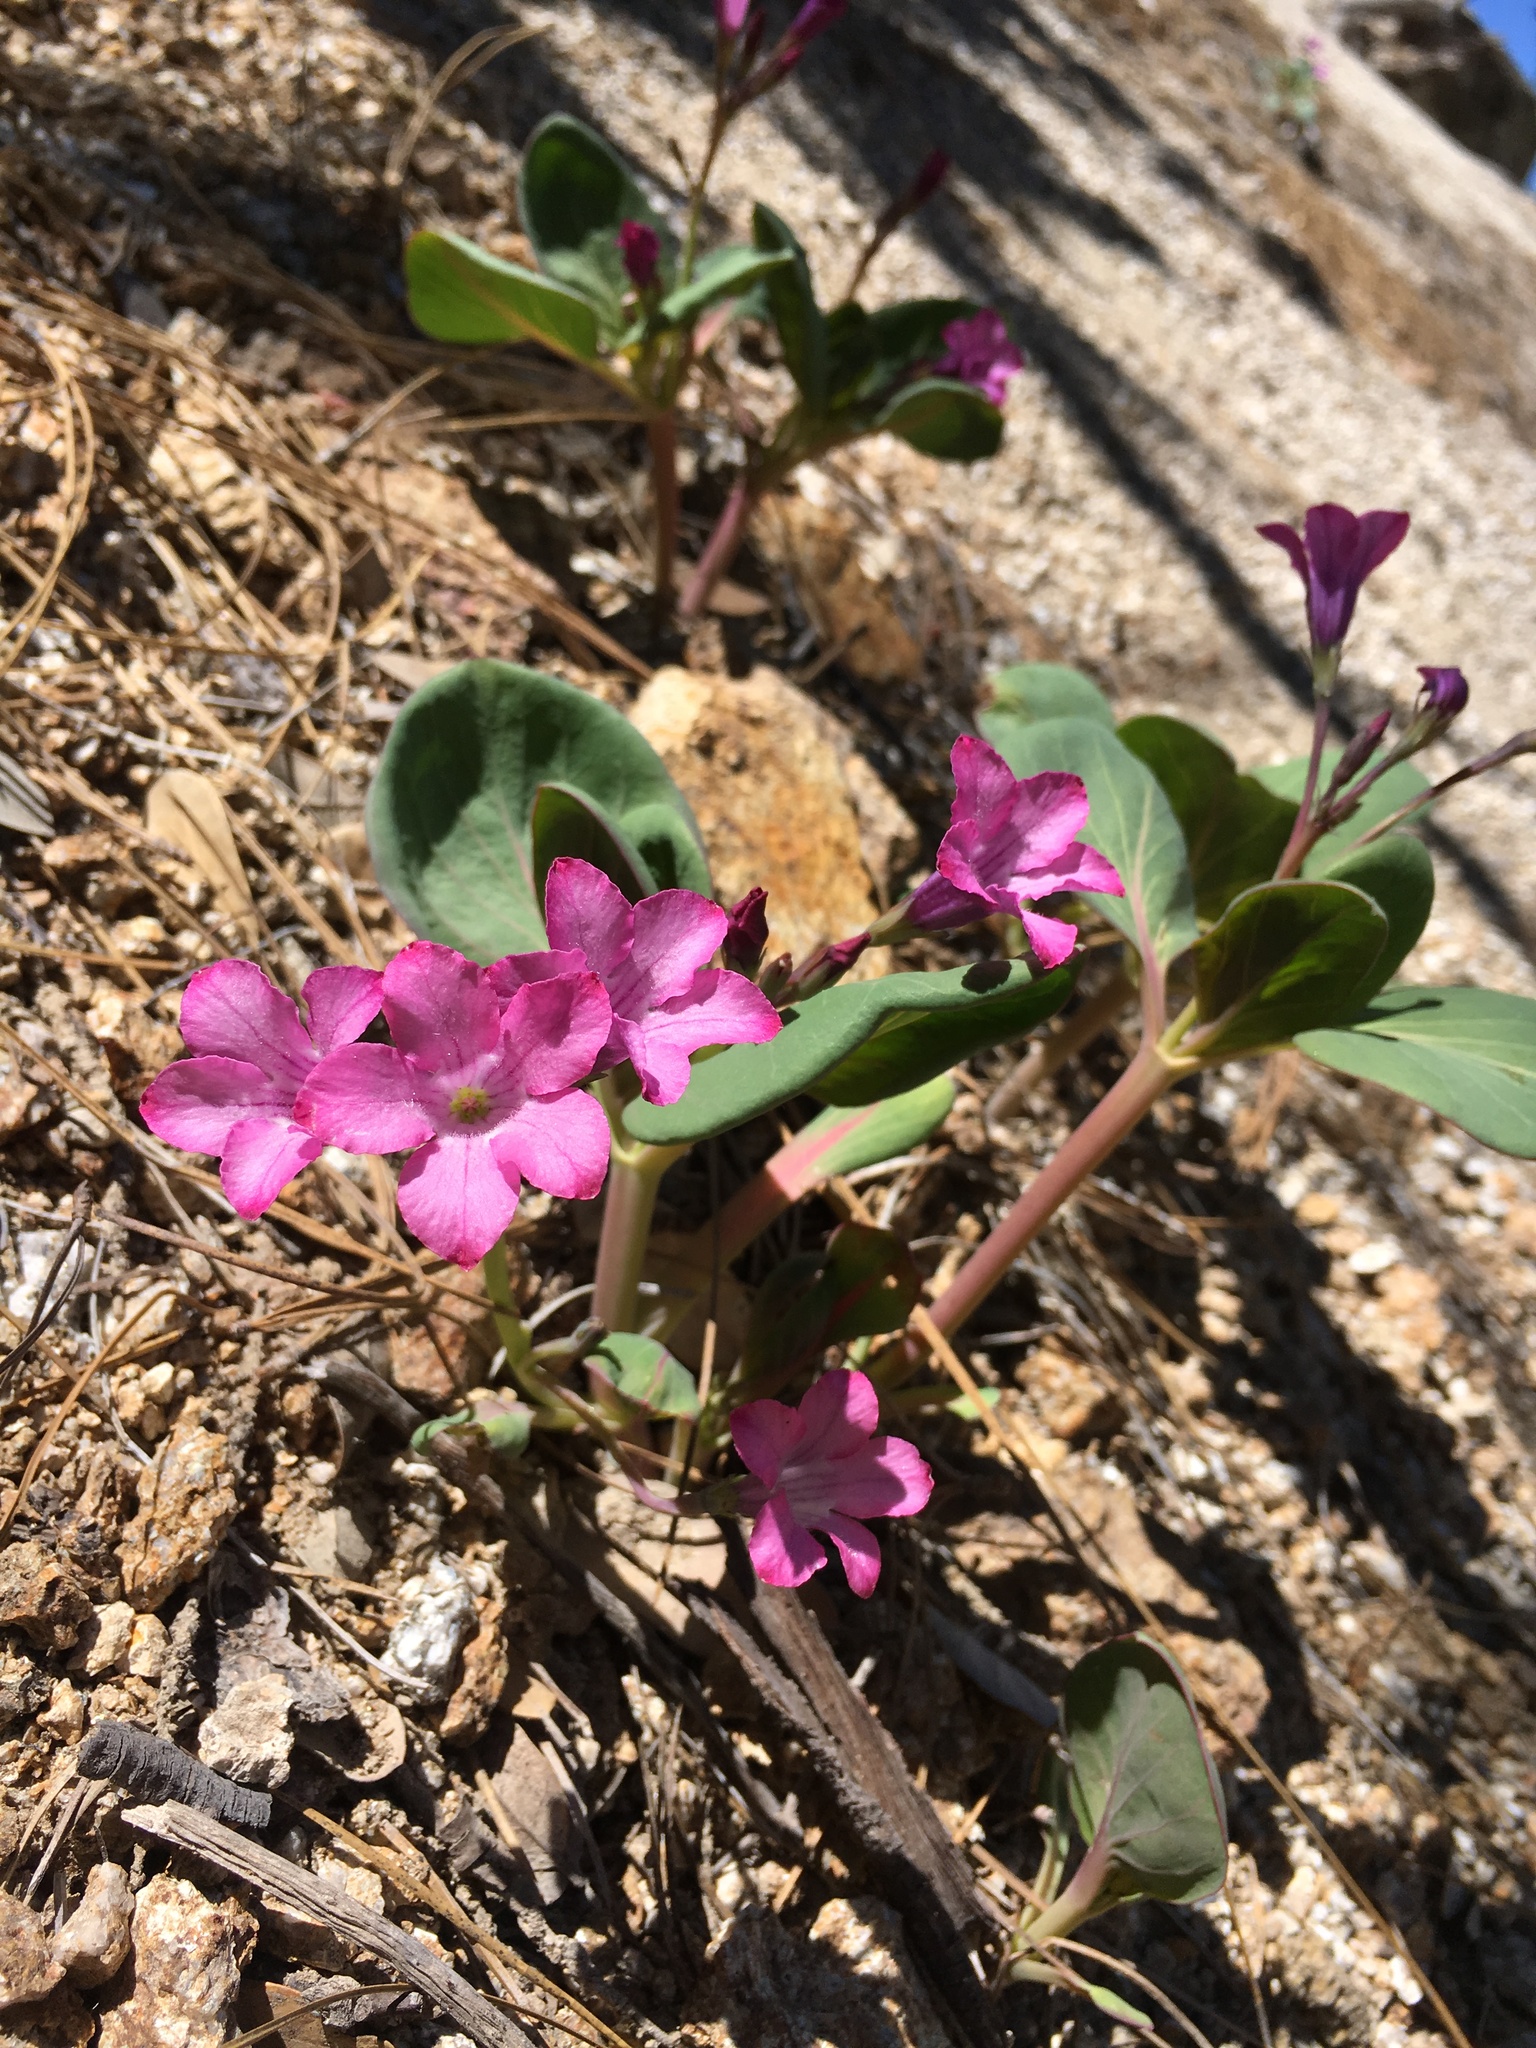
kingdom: Plantae
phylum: Tracheophyta
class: Magnoliopsida
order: Gentianales
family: Apocynaceae
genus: Cycladenia
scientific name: Cycladenia humilis
